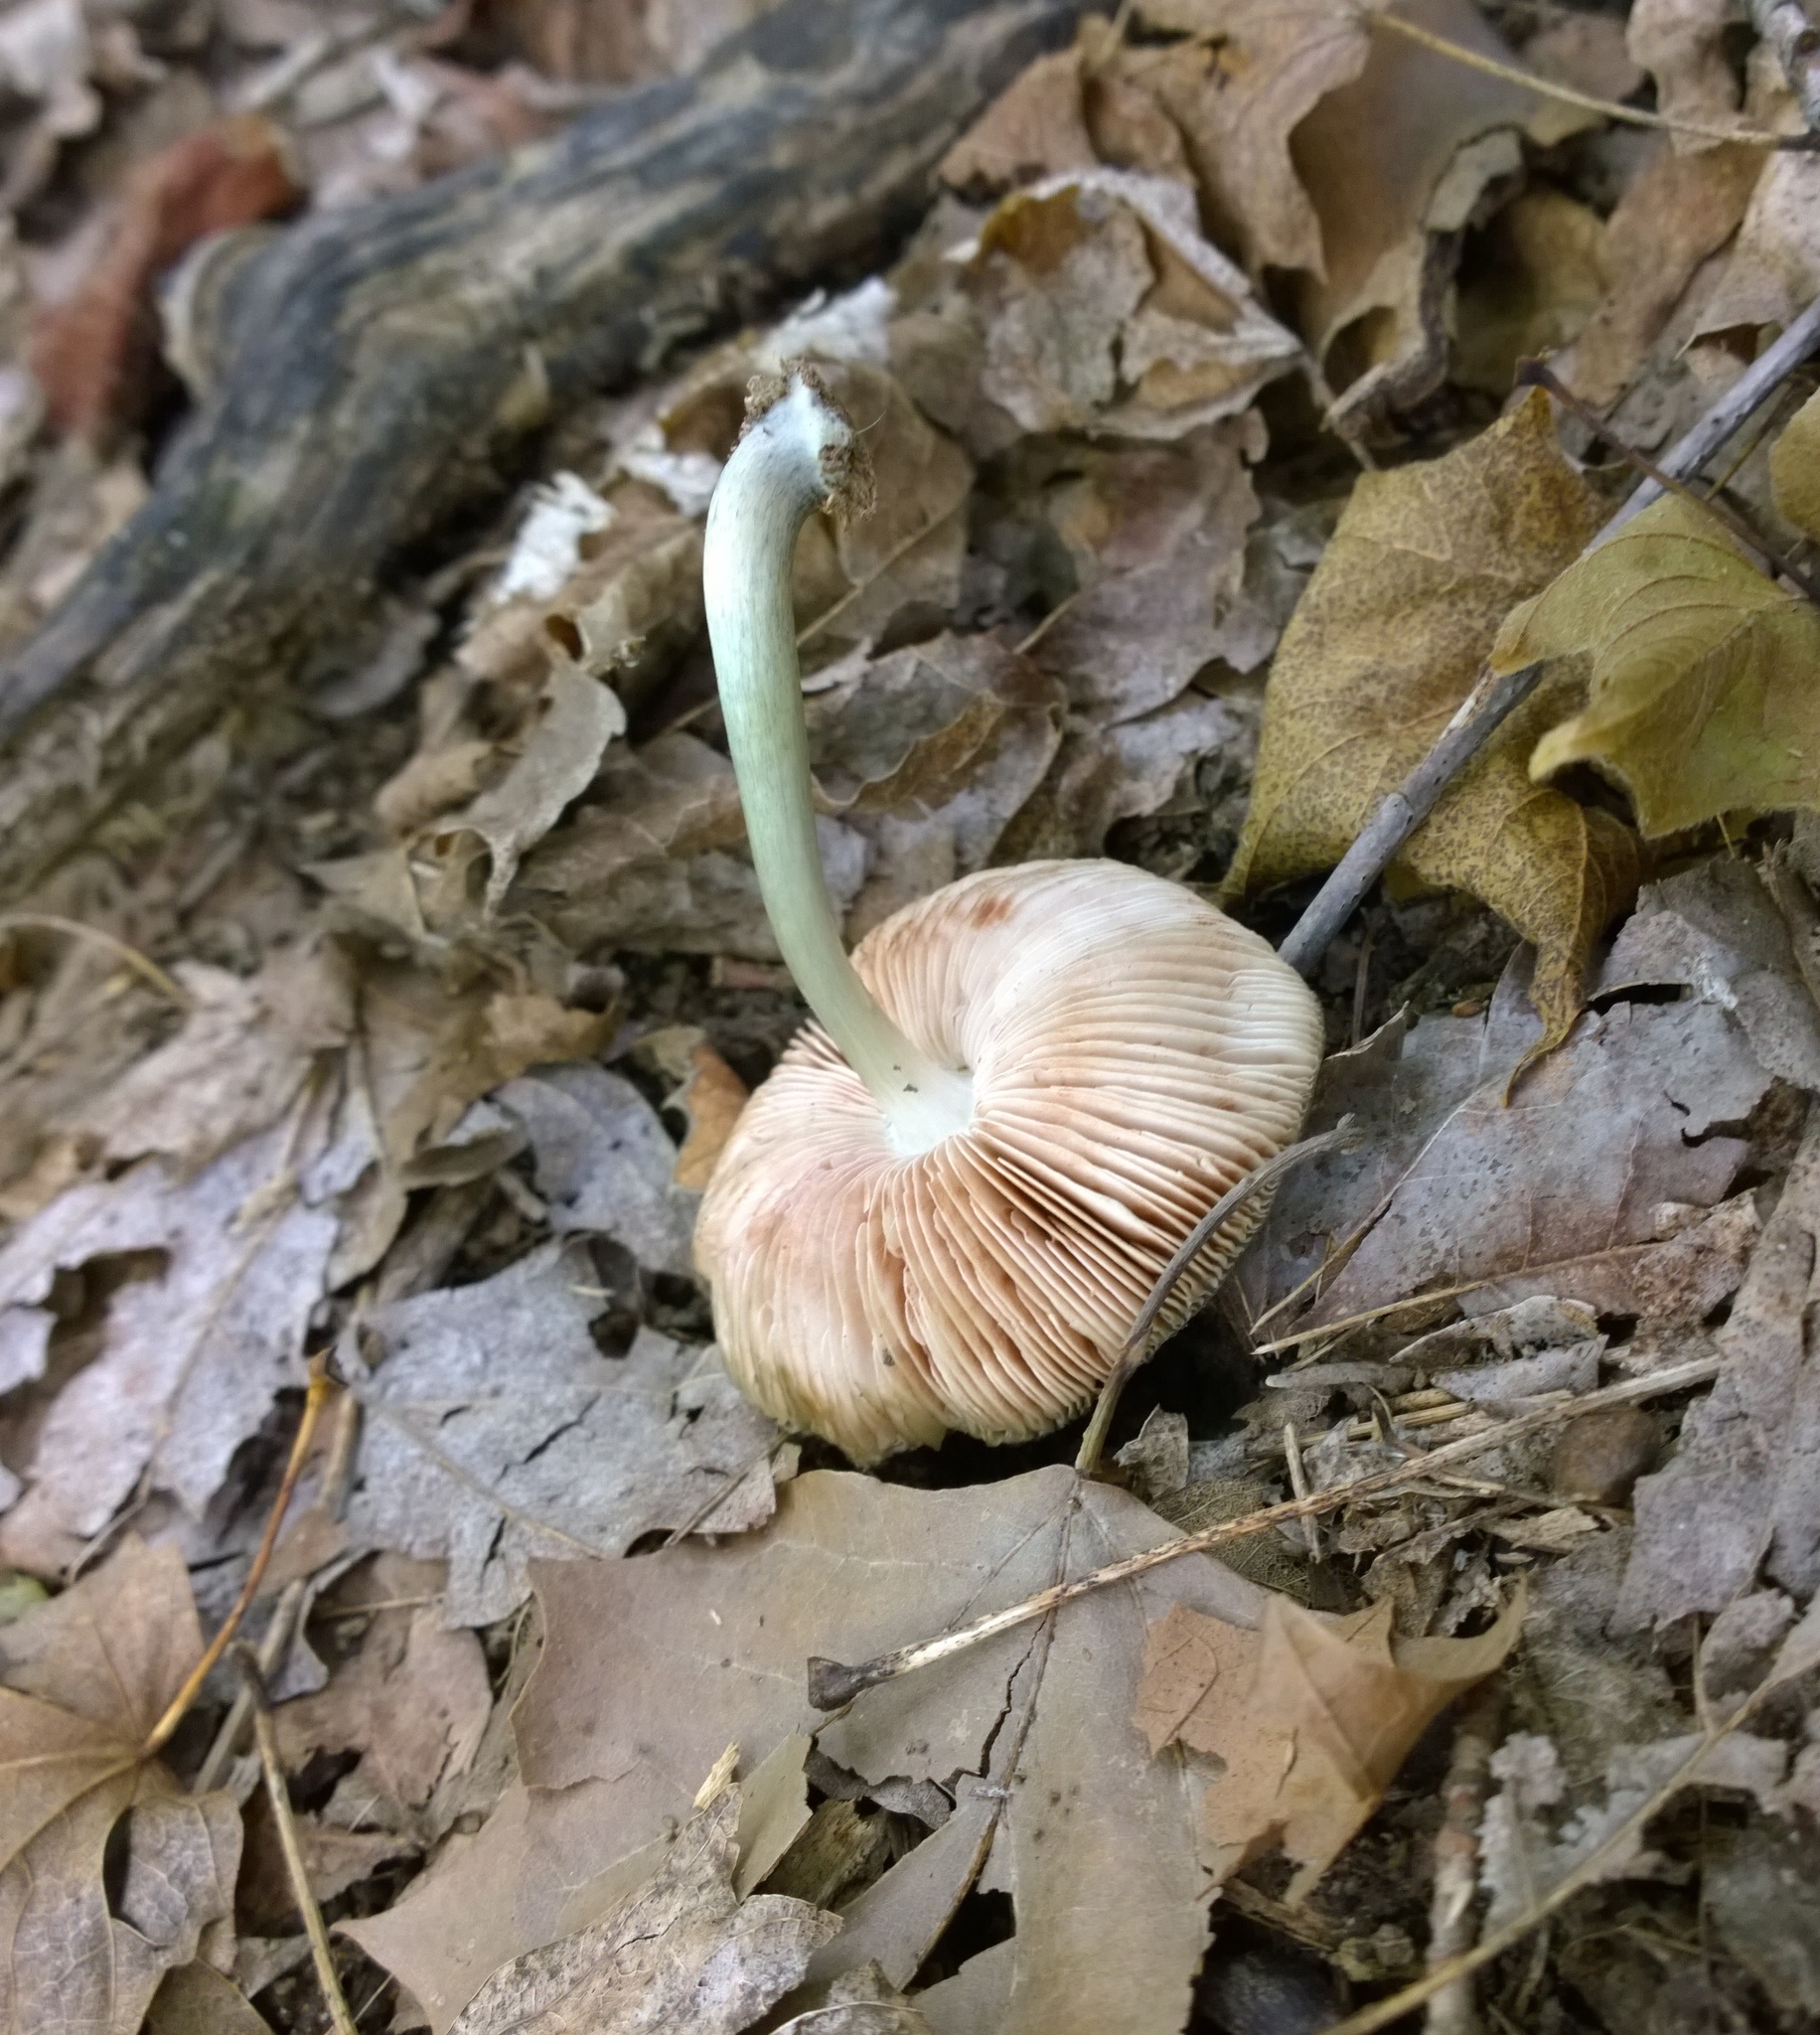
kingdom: Fungi
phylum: Basidiomycota
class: Agaricomycetes
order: Agaricales
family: Pluteaceae
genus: Pluteus
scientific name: Pluteus americanus
